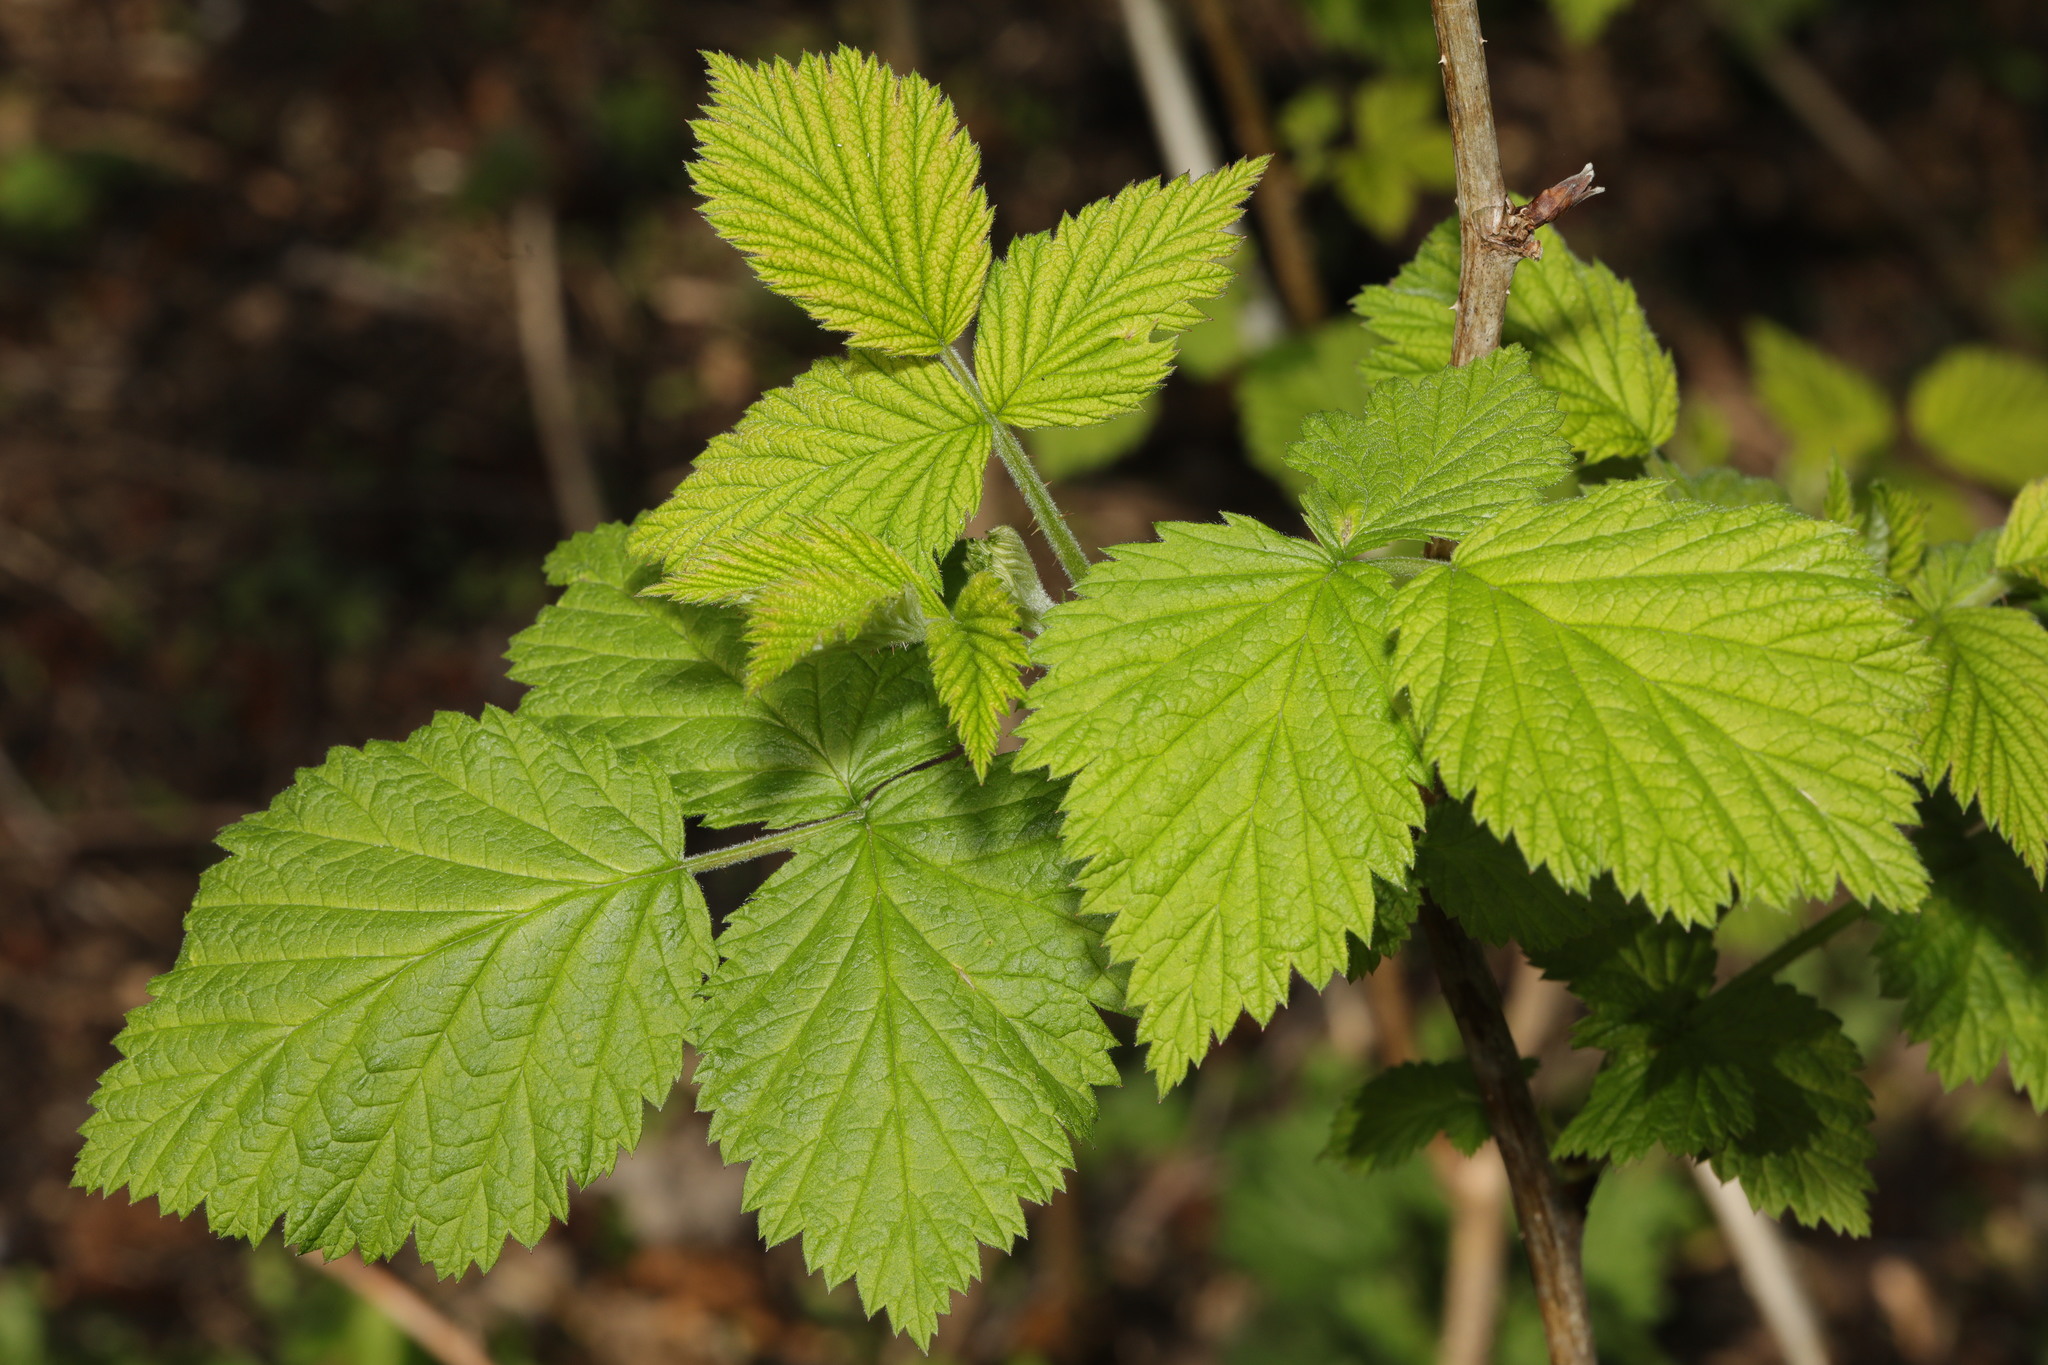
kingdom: Plantae
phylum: Tracheophyta
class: Magnoliopsida
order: Rosales
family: Rosaceae
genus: Rubus
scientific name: Rubus idaeus
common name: Raspberry
